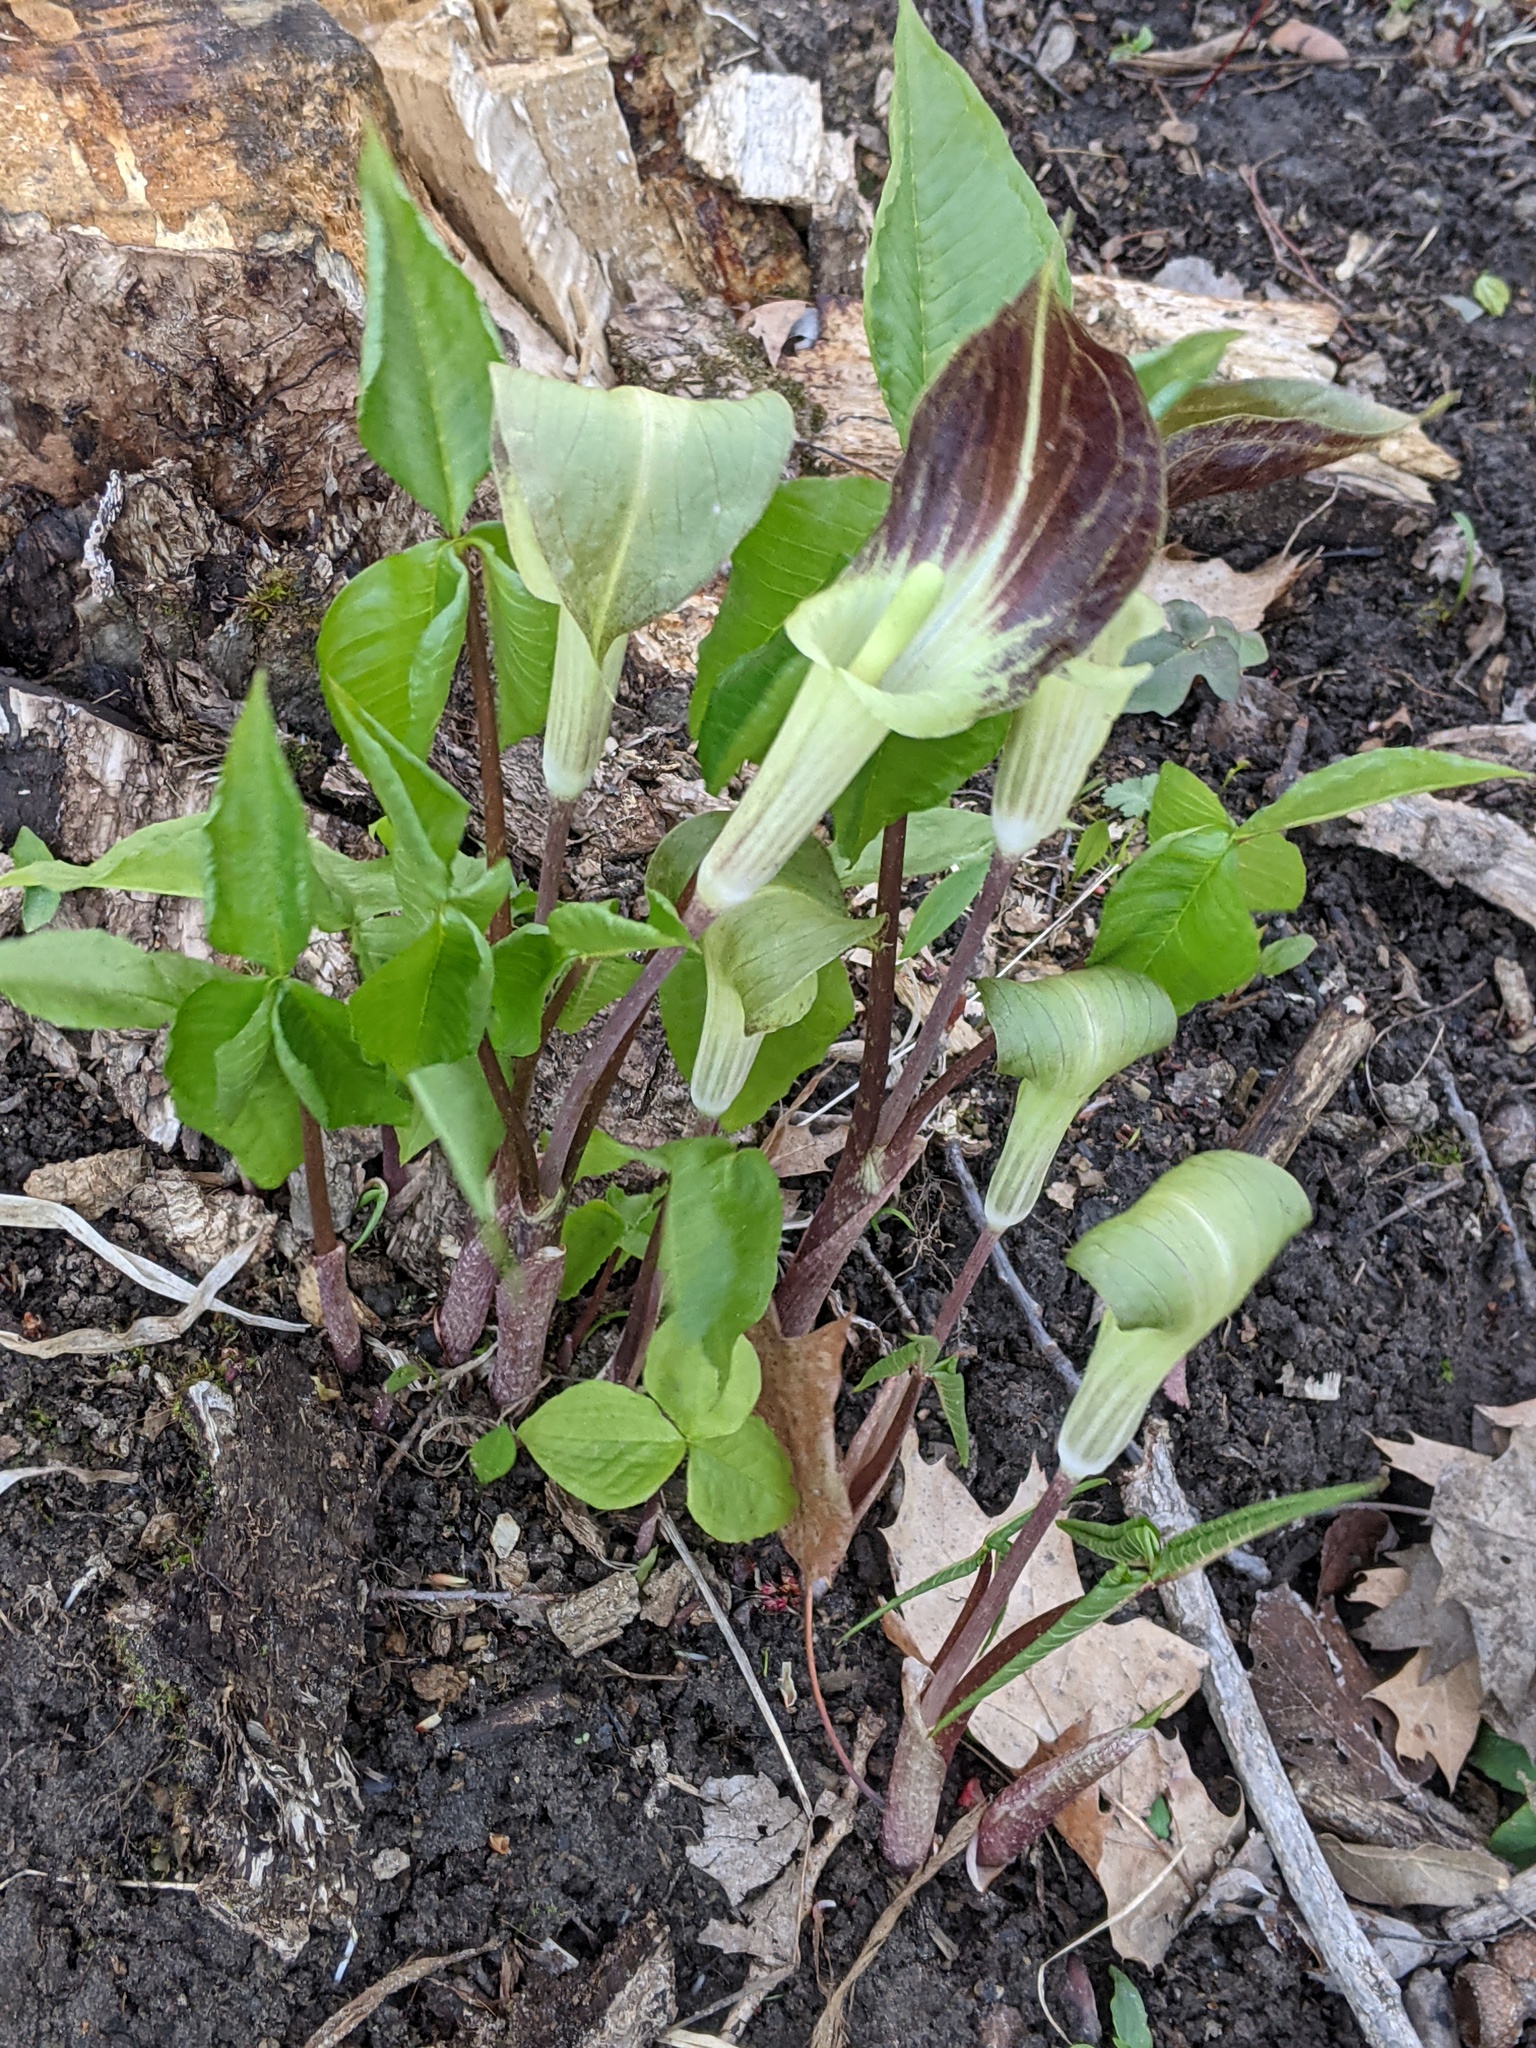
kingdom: Plantae
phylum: Tracheophyta
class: Liliopsida
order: Alismatales
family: Araceae
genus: Arisaema
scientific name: Arisaema triphyllum
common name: Jack-in-the-pulpit
